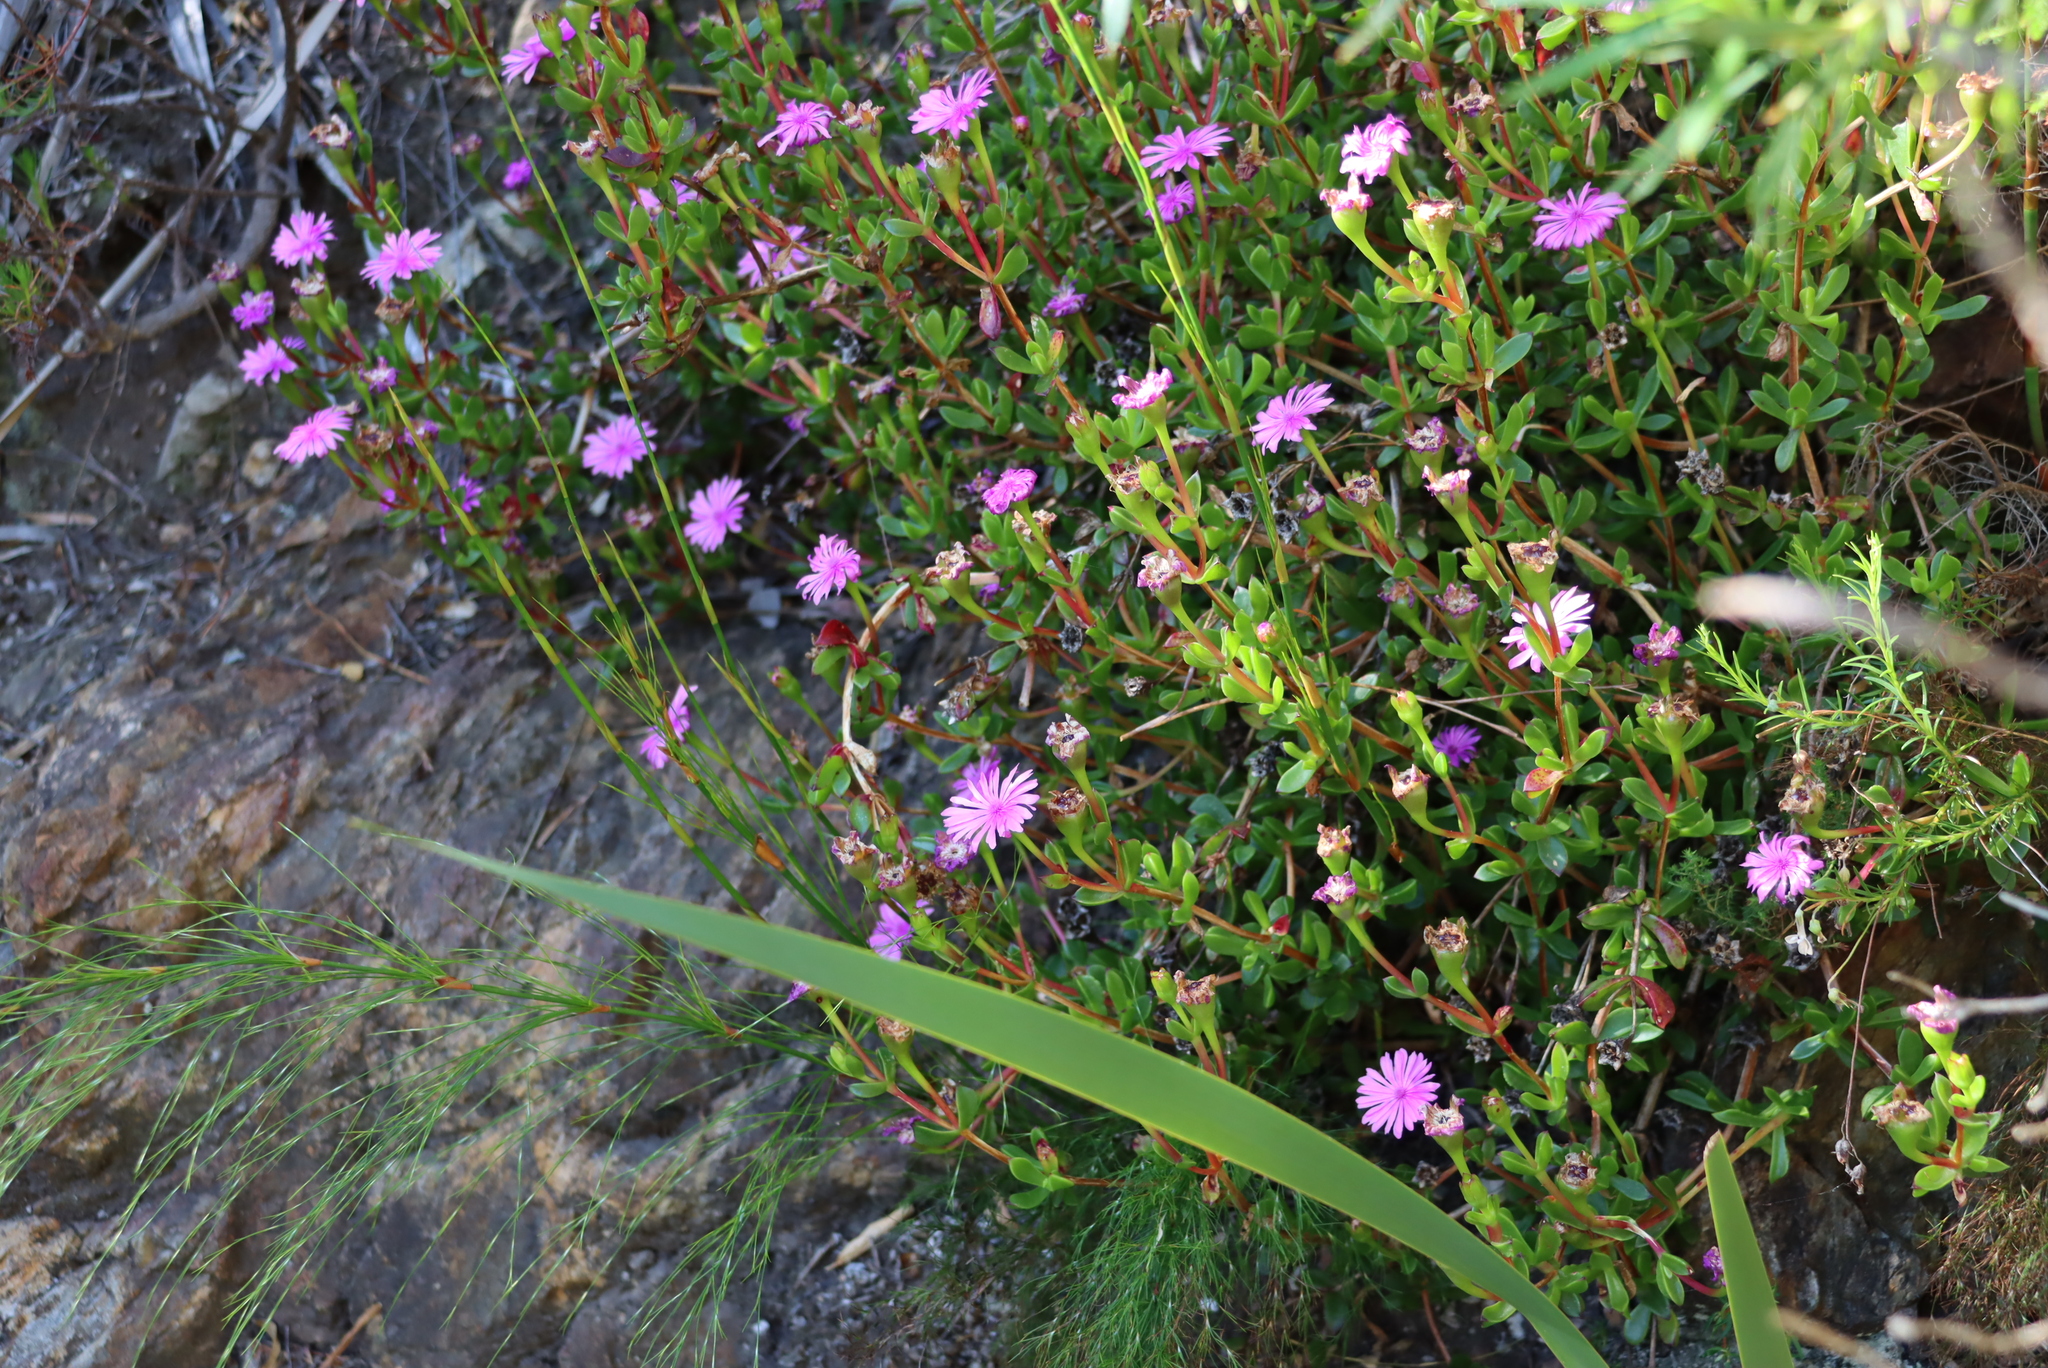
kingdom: Plantae
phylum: Tracheophyta
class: Magnoliopsida
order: Caryophyllales
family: Aizoaceae
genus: Erepsia
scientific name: Erepsia inclaudens
